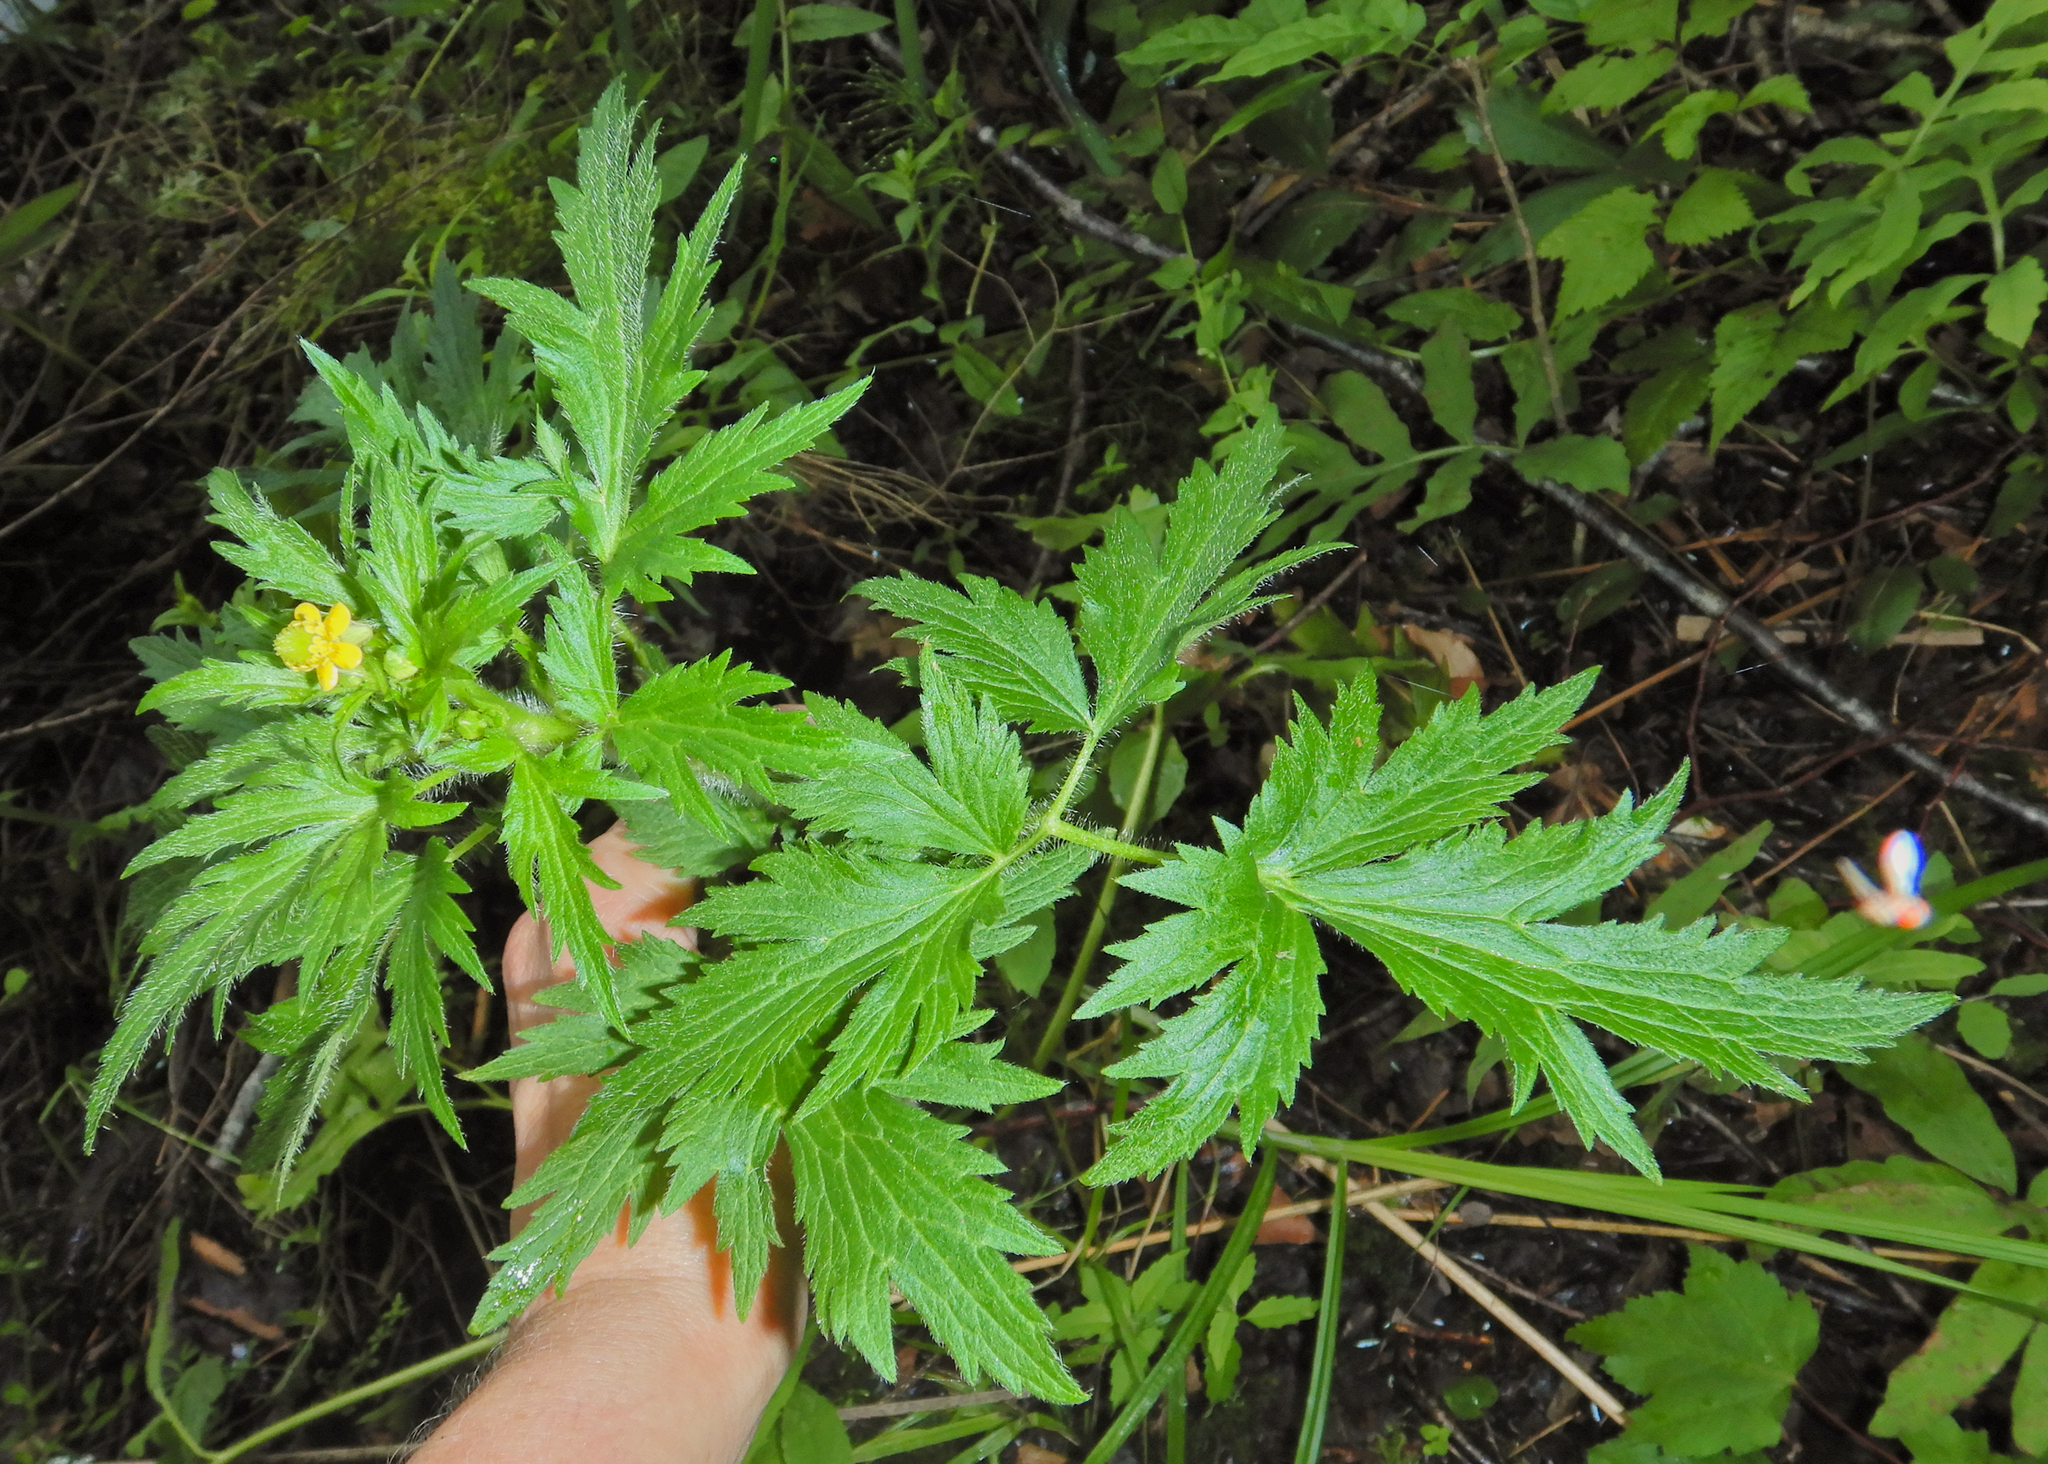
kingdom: Plantae
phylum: Tracheophyta
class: Magnoliopsida
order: Ranunculales
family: Ranunculaceae
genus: Ranunculus
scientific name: Ranunculus pensylvanicus
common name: Bristly buttercup
